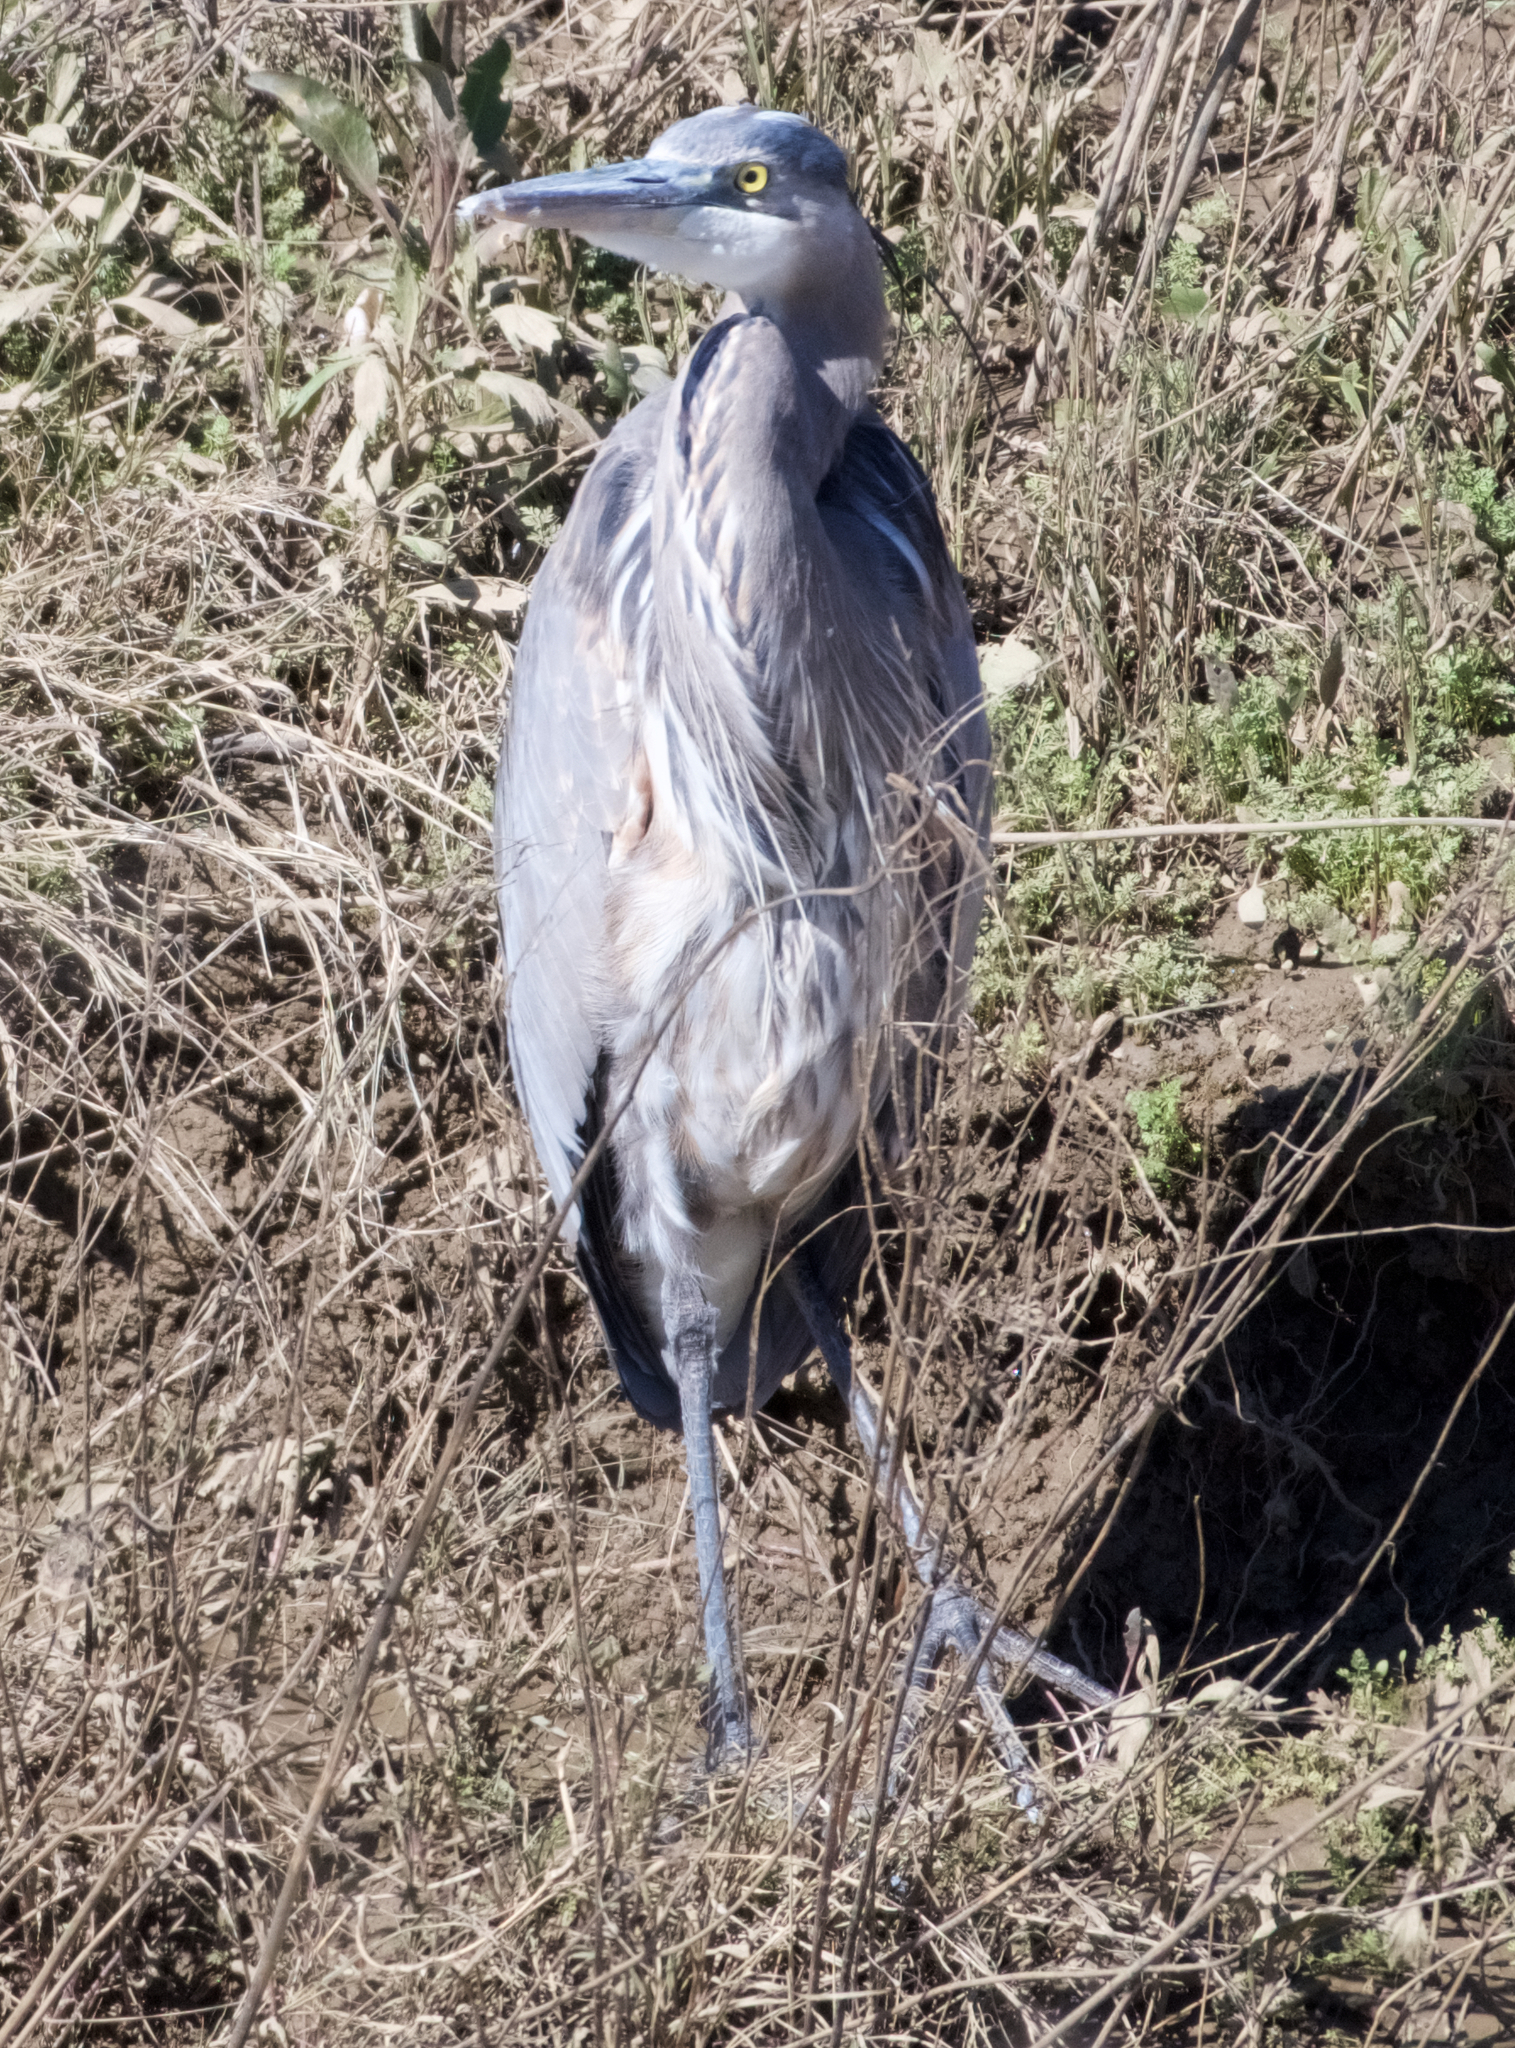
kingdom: Animalia
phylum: Chordata
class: Aves
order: Pelecaniformes
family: Ardeidae
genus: Ardea
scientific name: Ardea herodias
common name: Great blue heron
